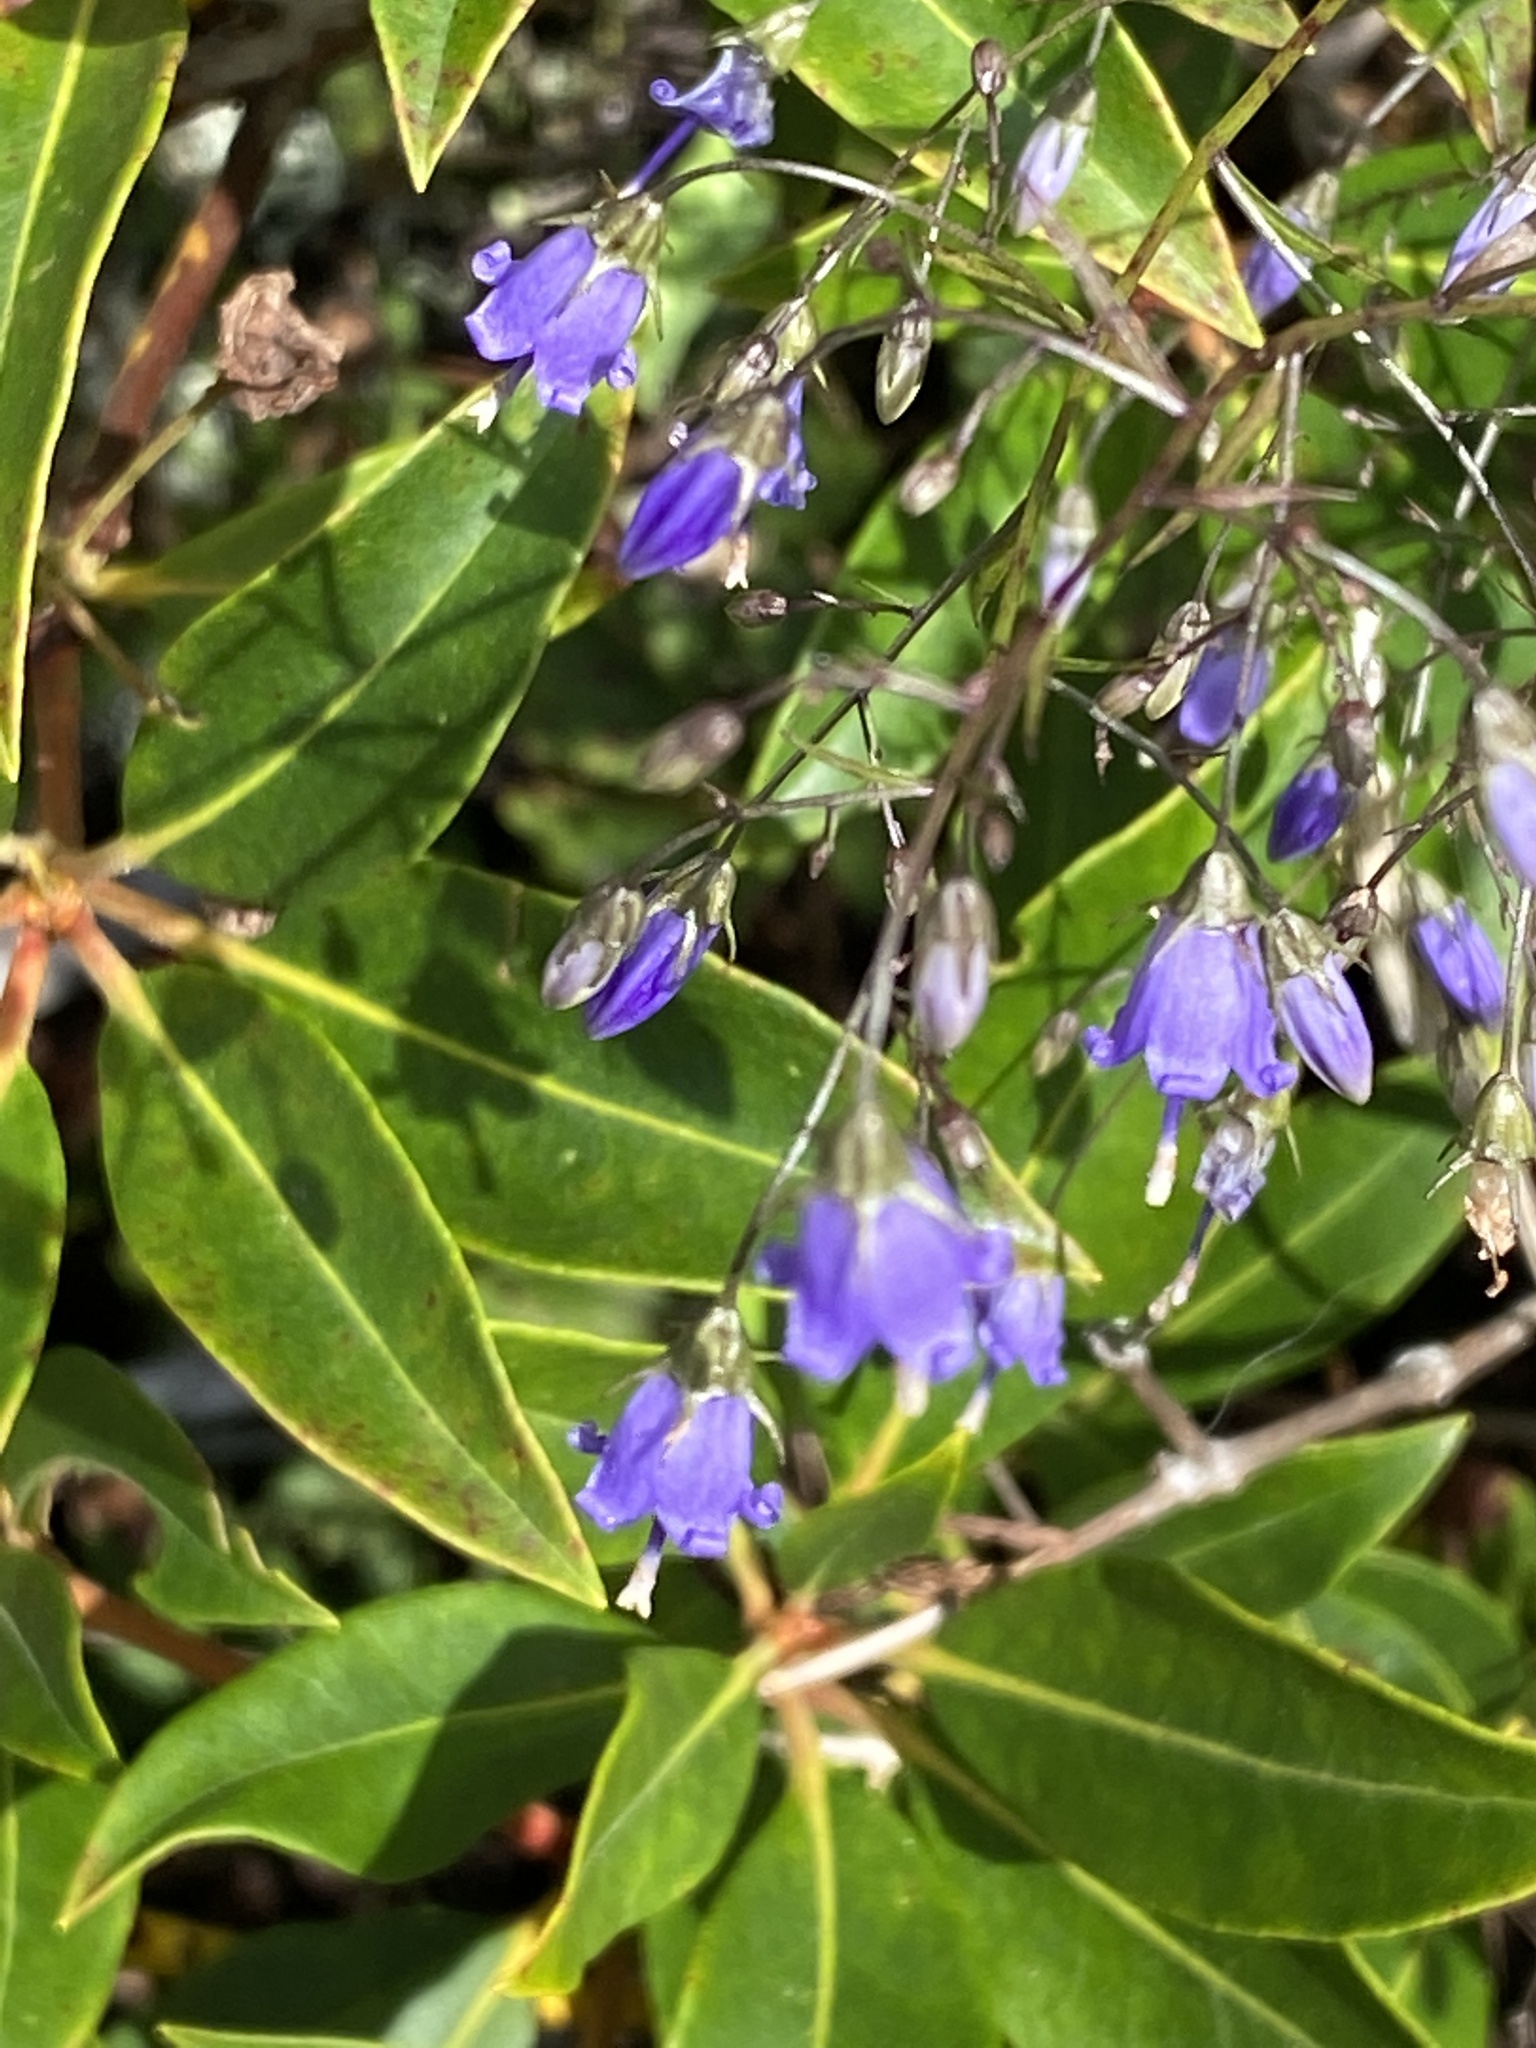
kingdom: Plantae
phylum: Tracheophyta
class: Magnoliopsida
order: Asterales
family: Campanulaceae
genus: Campanula
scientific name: Campanula divaricata
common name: Appalachian bellflower
